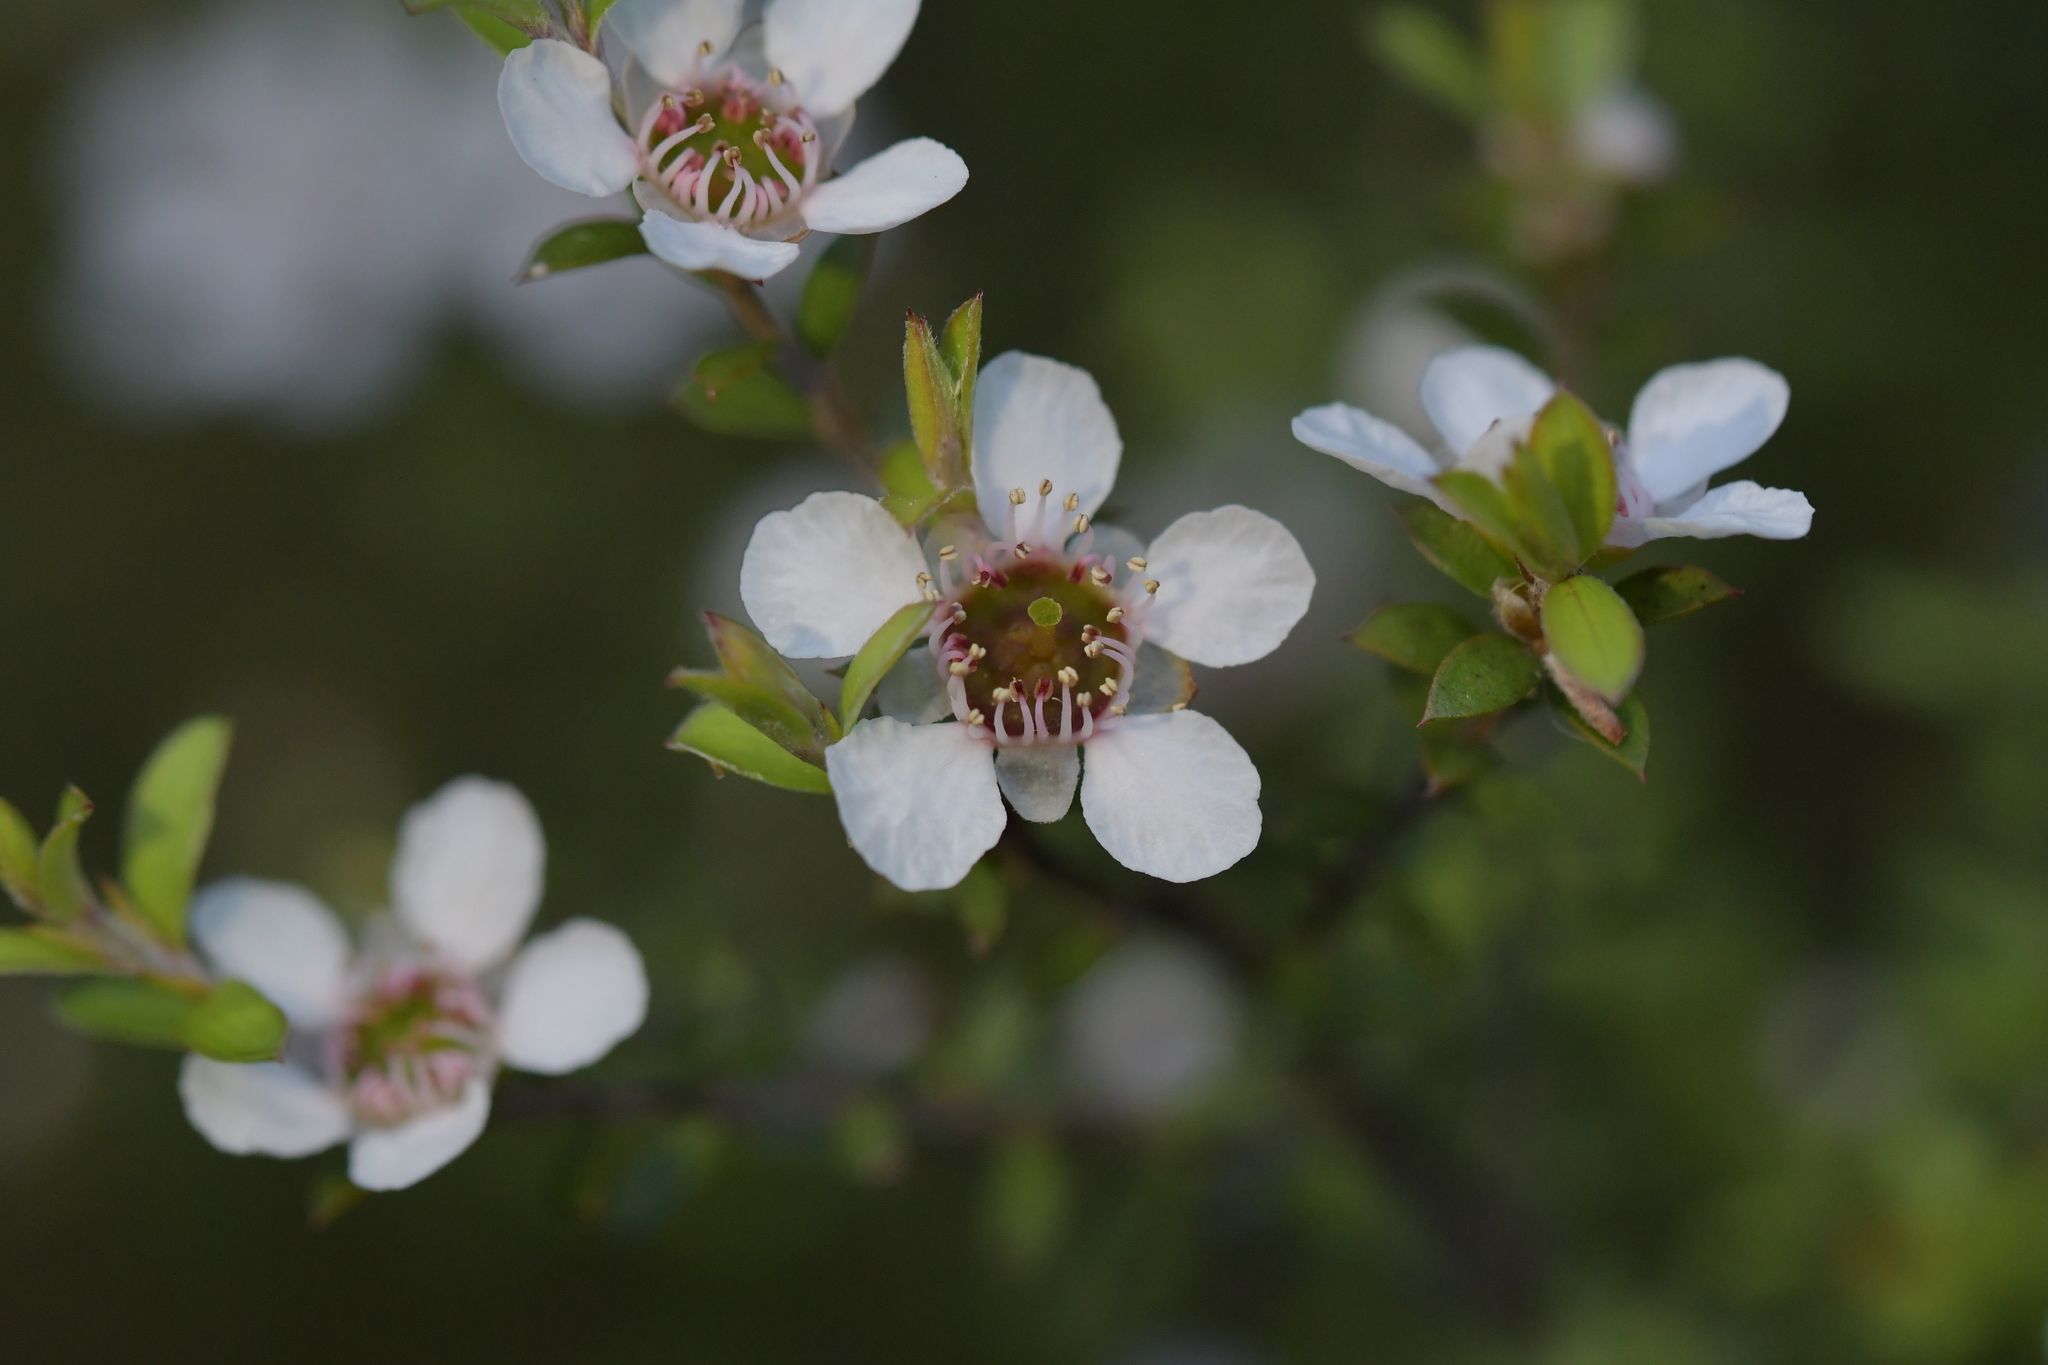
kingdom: Plantae
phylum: Tracheophyta
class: Magnoliopsida
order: Myrtales
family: Myrtaceae
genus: Leptospermum
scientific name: Leptospermum scoparium
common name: Broom tea-tree
